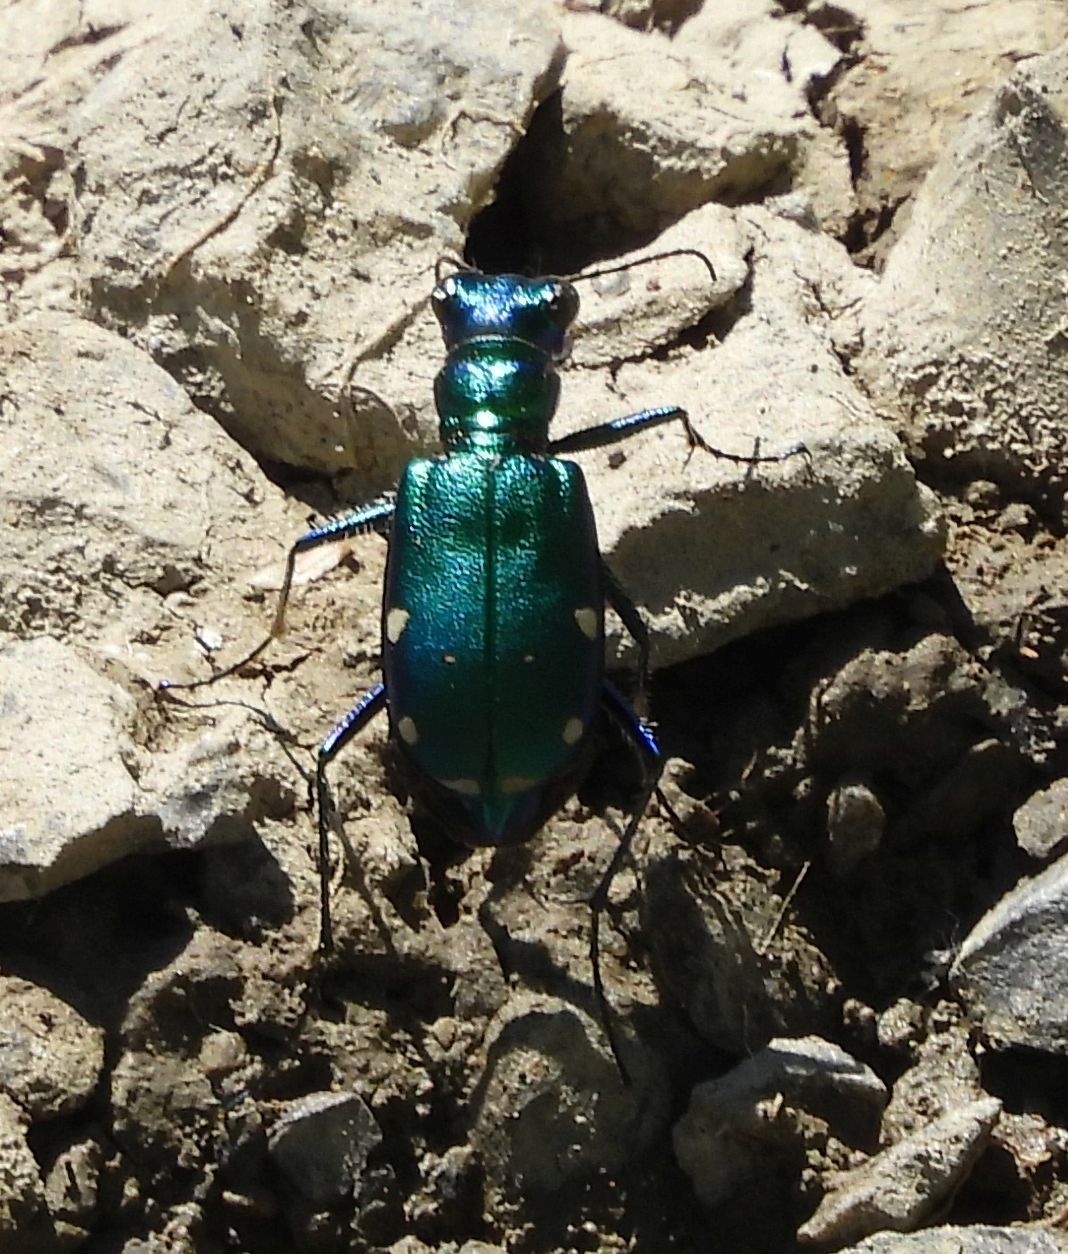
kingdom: Animalia
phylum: Arthropoda
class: Insecta
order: Coleoptera
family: Carabidae
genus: Cicindela
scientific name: Cicindela sexguttata
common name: Six-spotted tiger beetle
